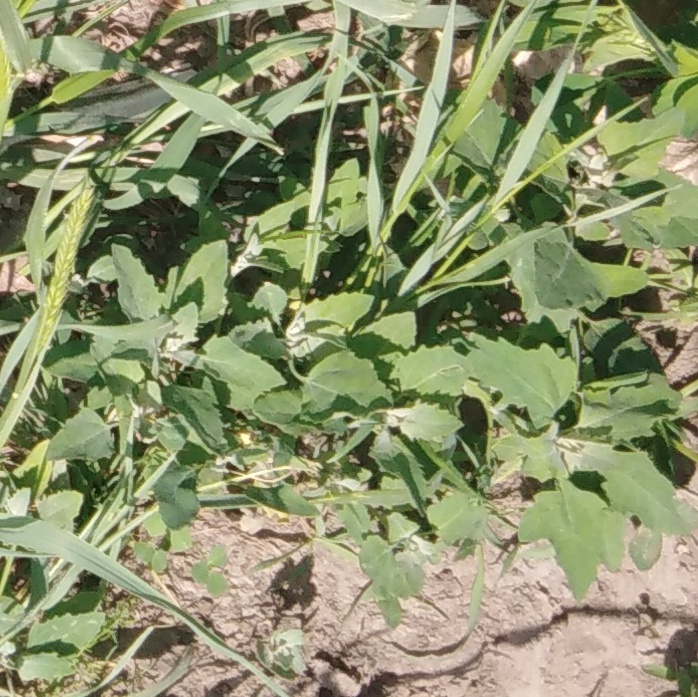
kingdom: Plantae
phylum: Tracheophyta
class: Magnoliopsida
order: Caryophyllales
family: Amaranthaceae
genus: Chenopodium
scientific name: Chenopodium album
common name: Fat-hen
